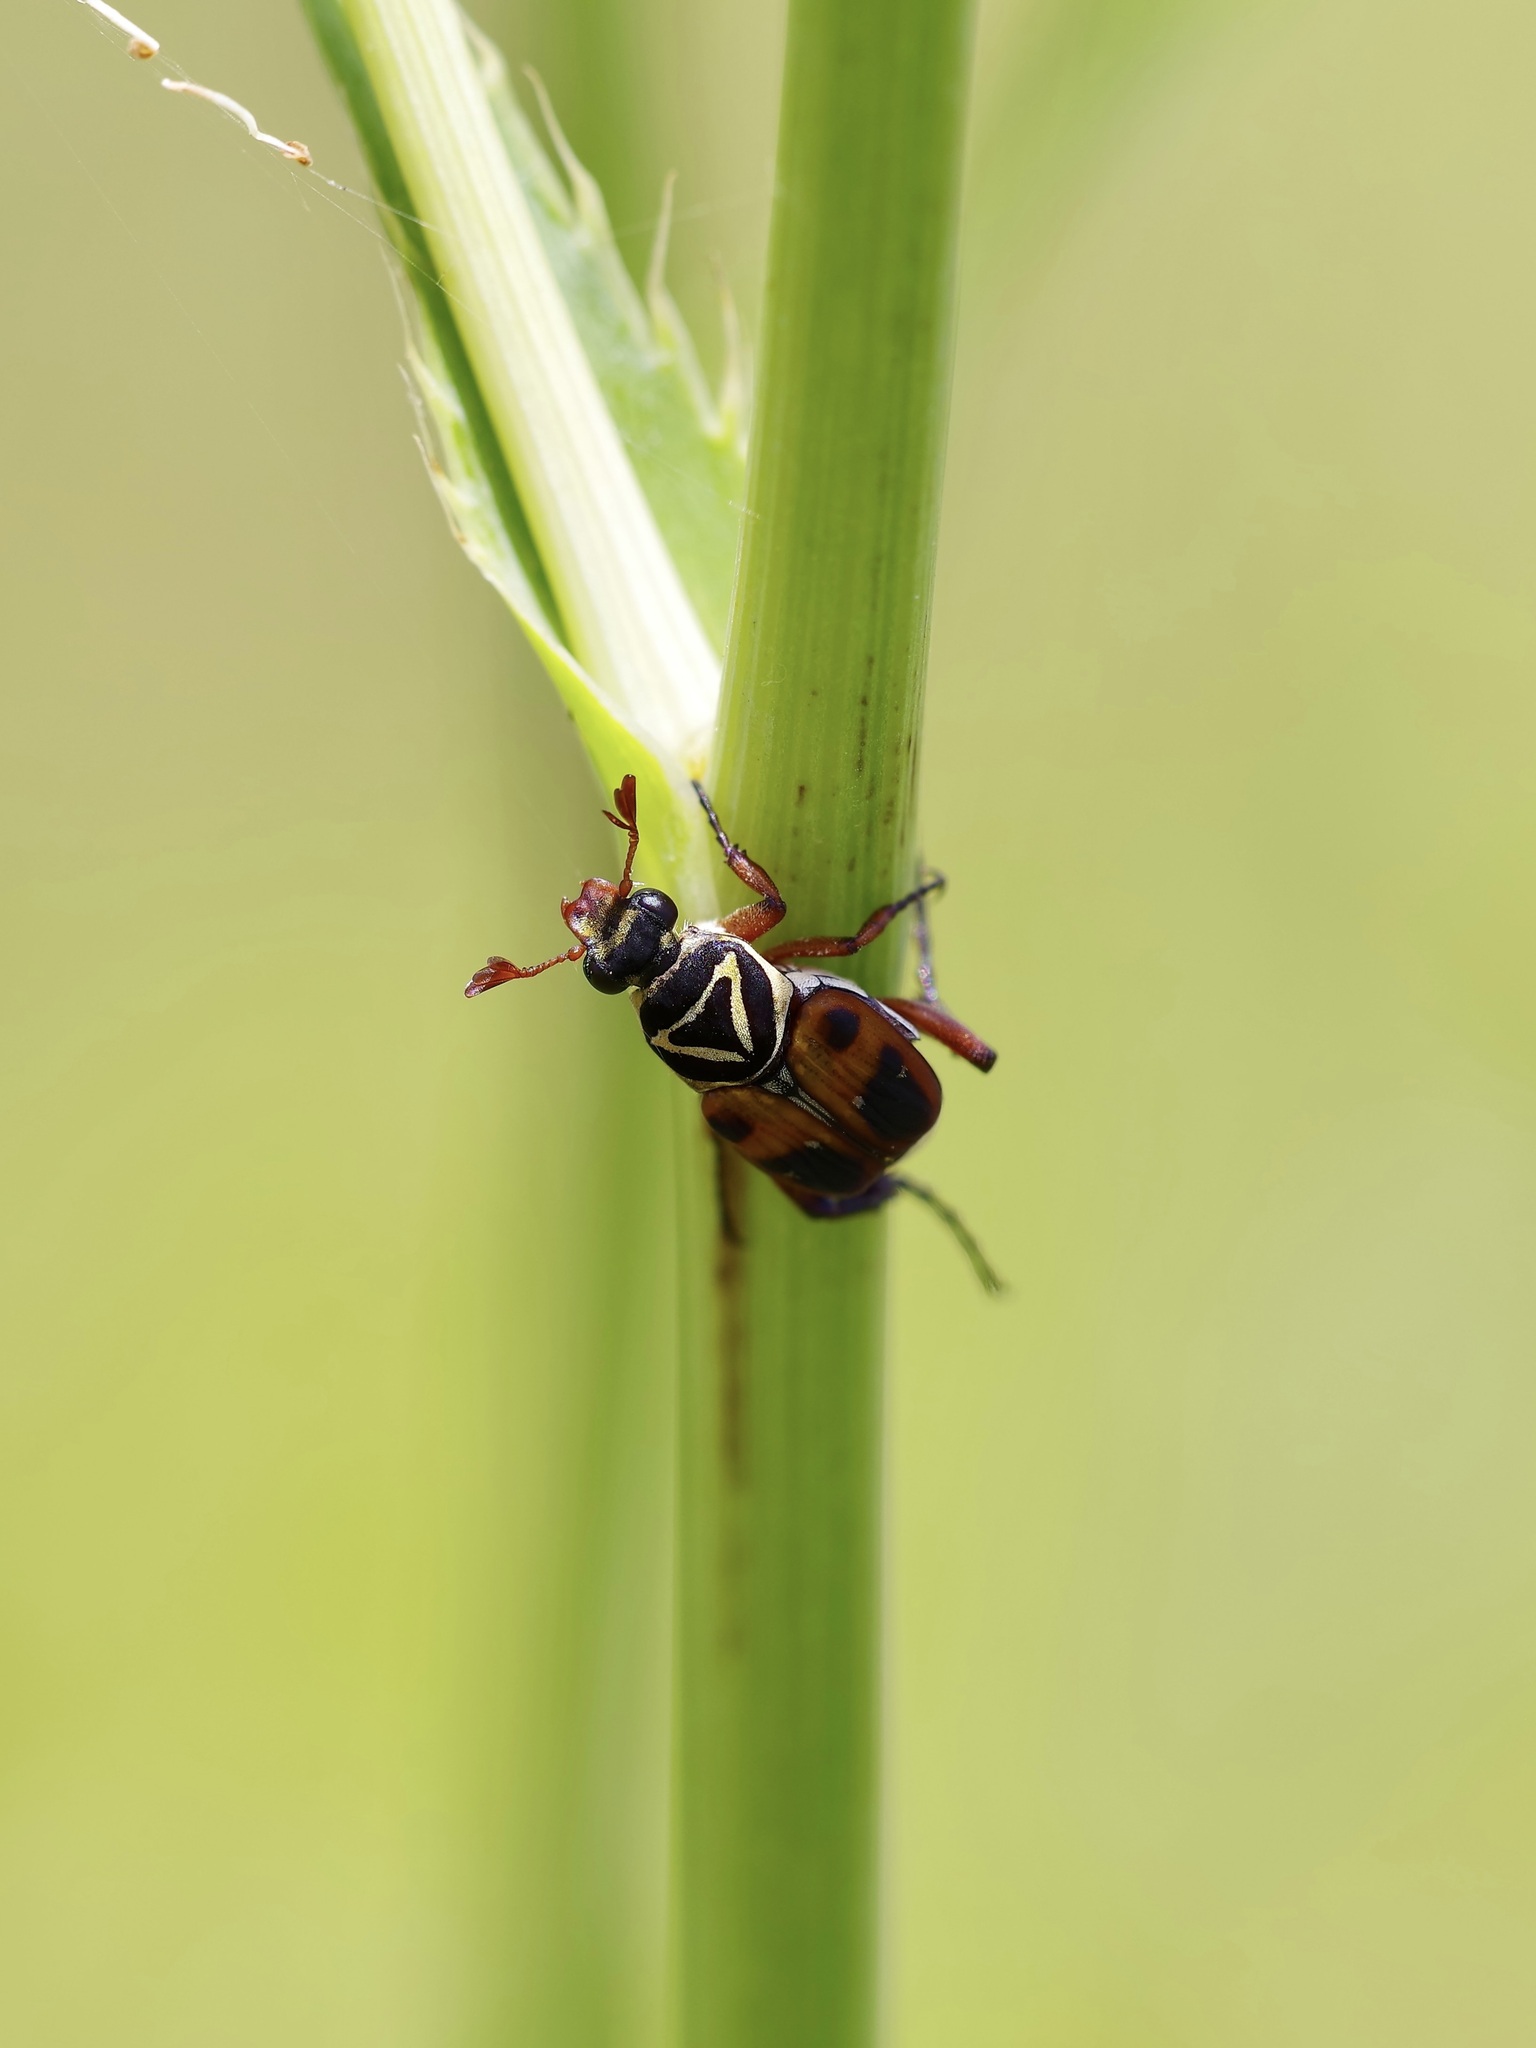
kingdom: Animalia
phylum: Arthropoda
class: Insecta
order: Coleoptera
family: Scarabaeidae
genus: Trigonopeltastes
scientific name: Trigonopeltastes delta
